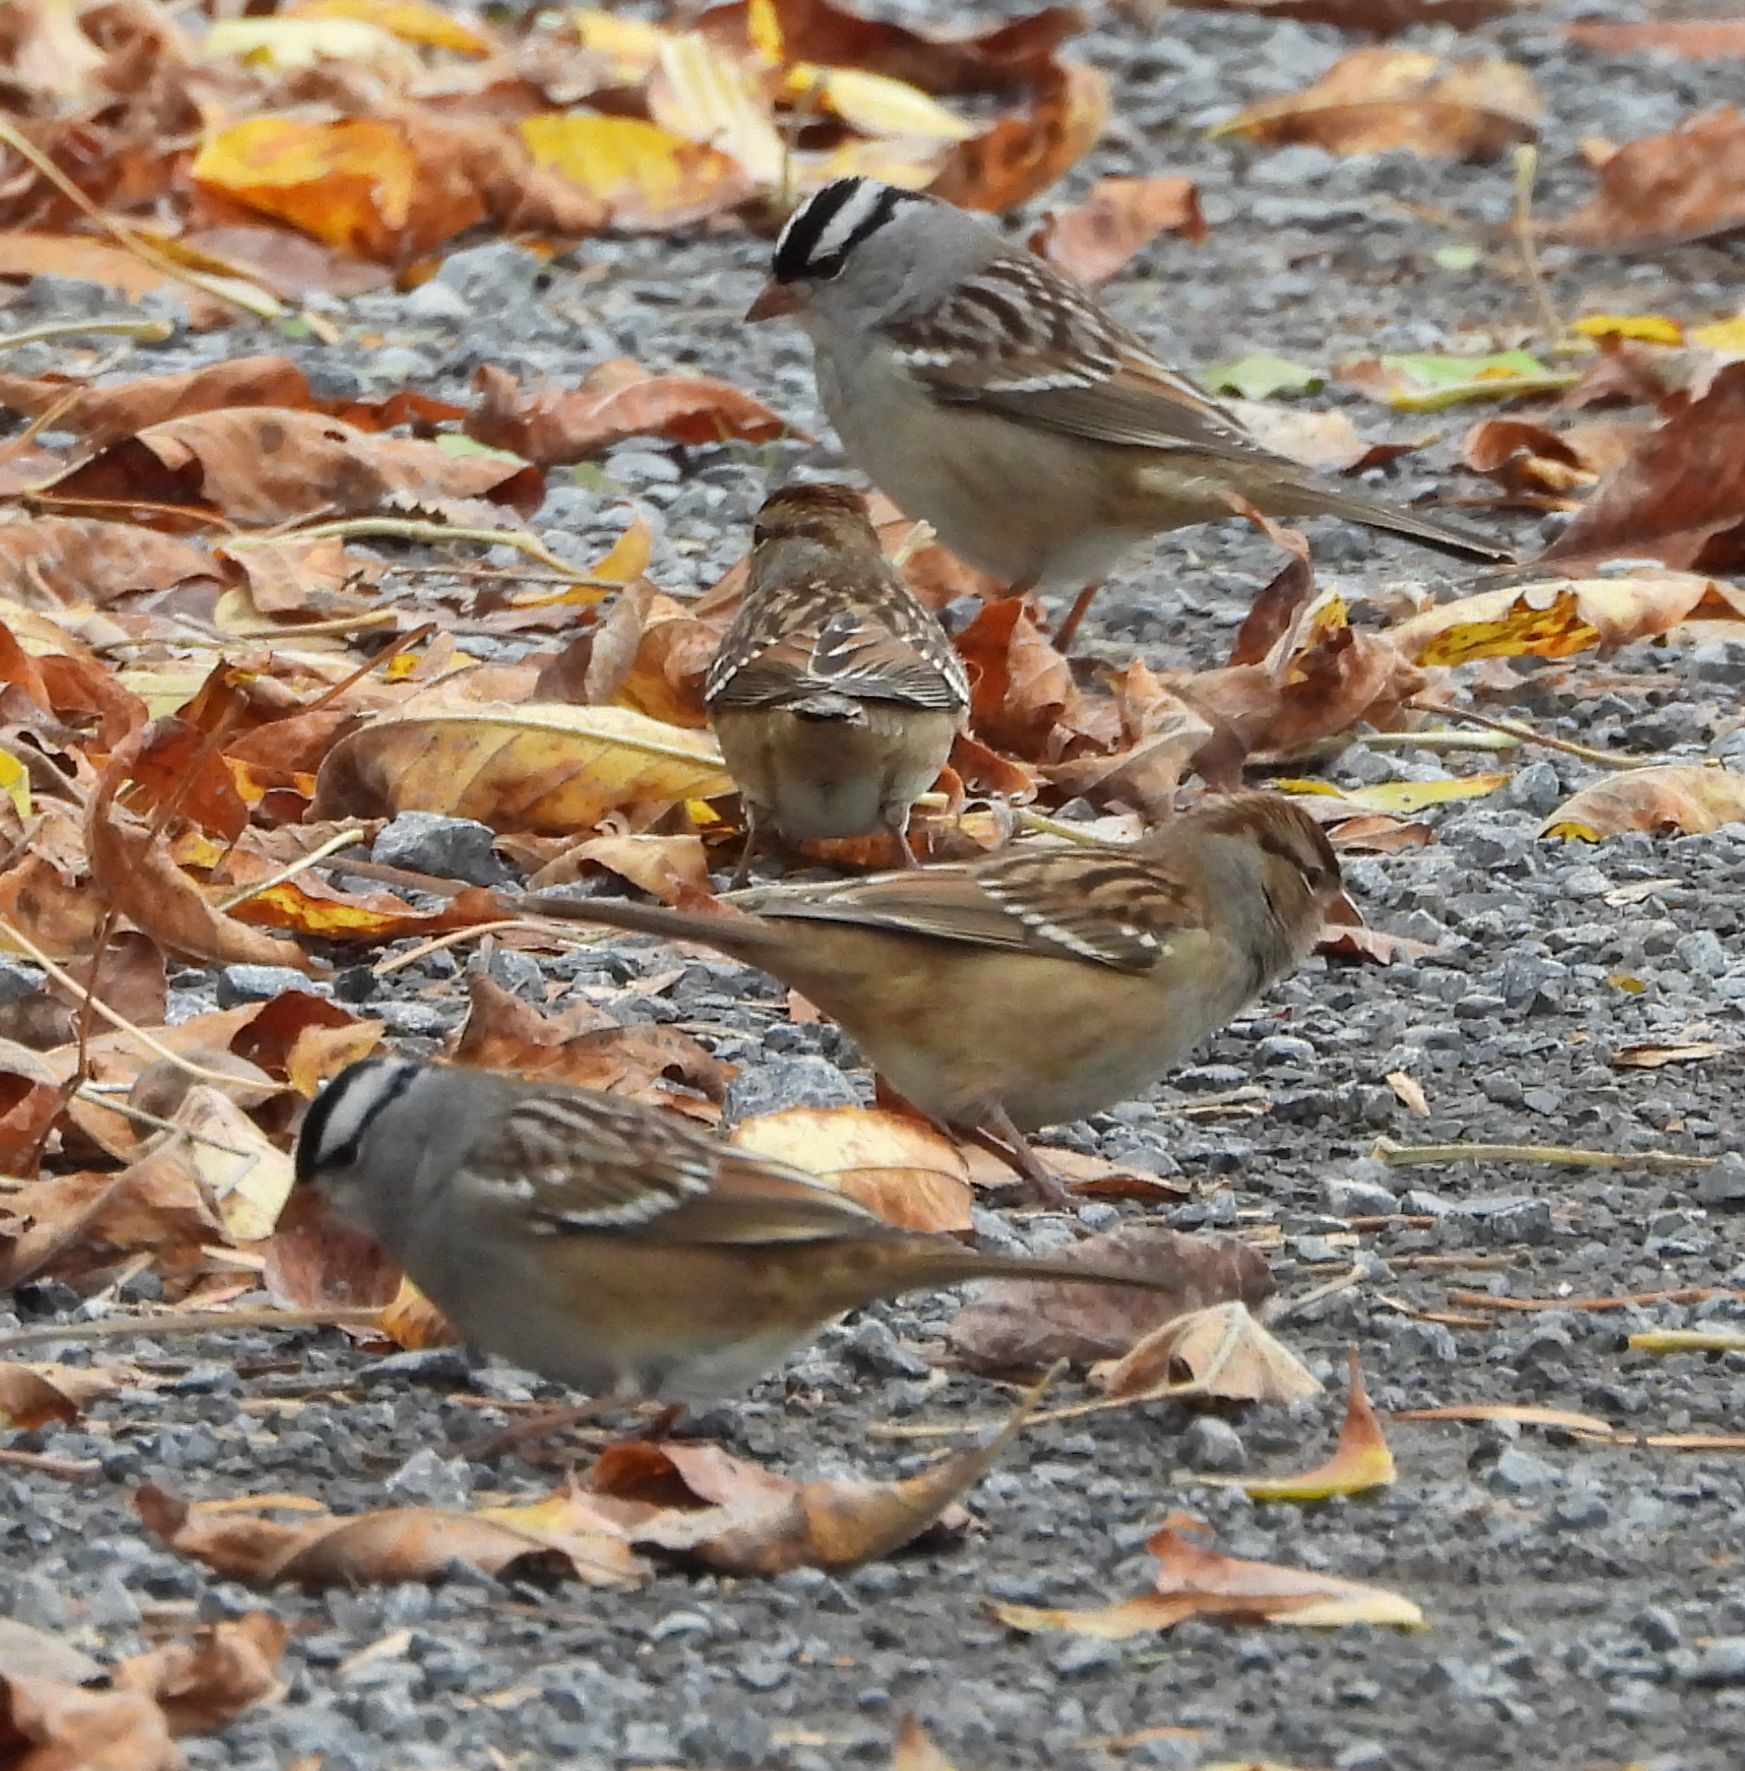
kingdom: Animalia
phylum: Chordata
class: Aves
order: Passeriformes
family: Passerellidae
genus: Zonotrichia
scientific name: Zonotrichia leucophrys
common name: White-crowned sparrow
